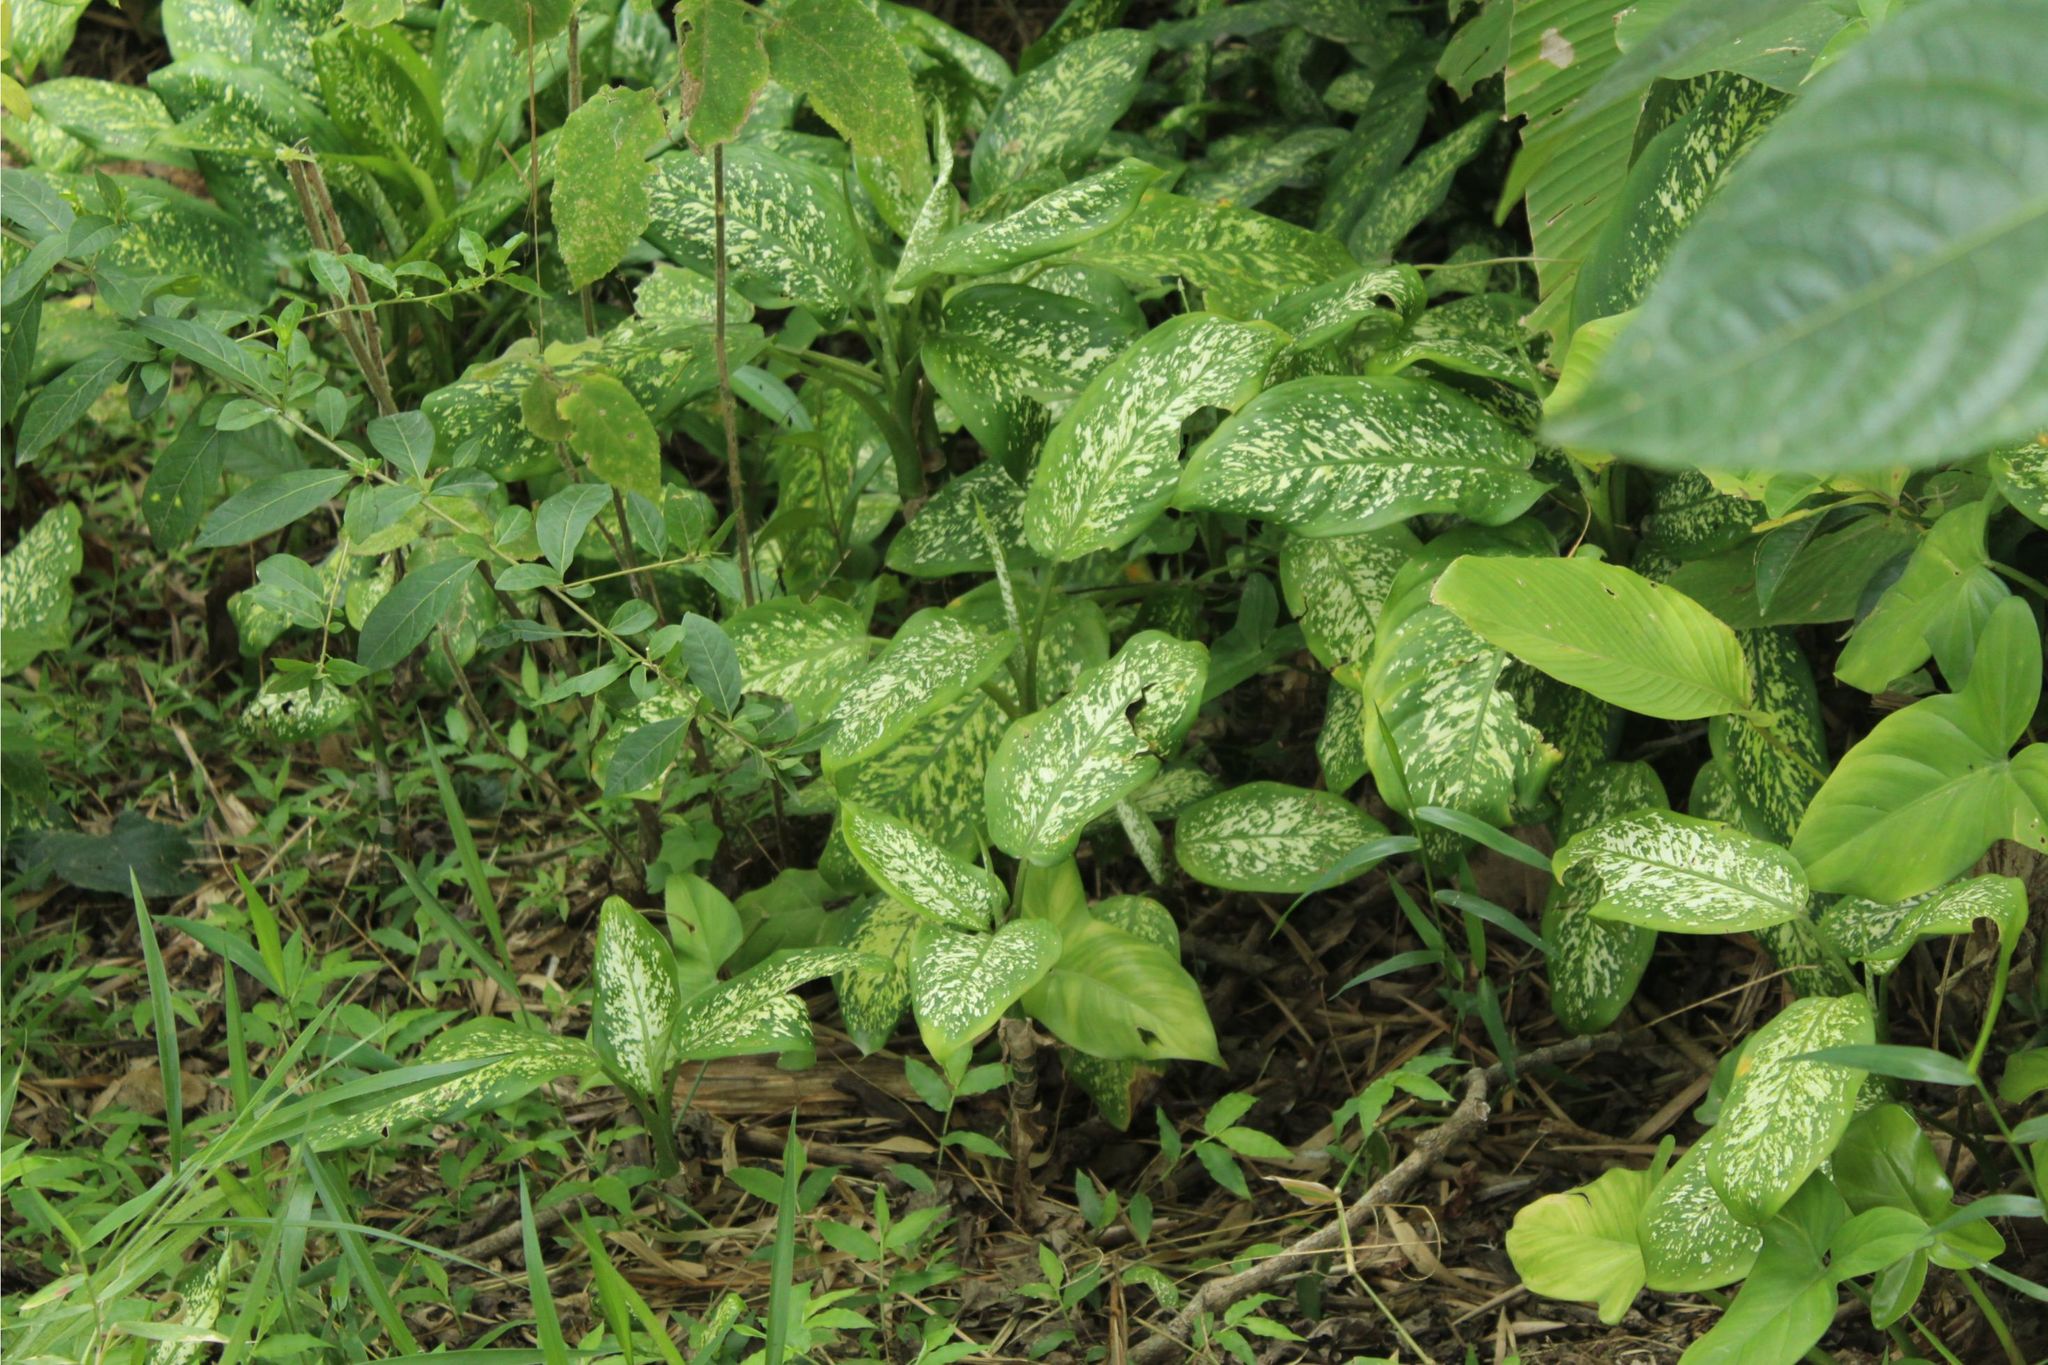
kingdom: Plantae
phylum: Tracheophyta
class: Liliopsida
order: Alismatales
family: Araceae
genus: Dieffenbachia
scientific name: Dieffenbachia
